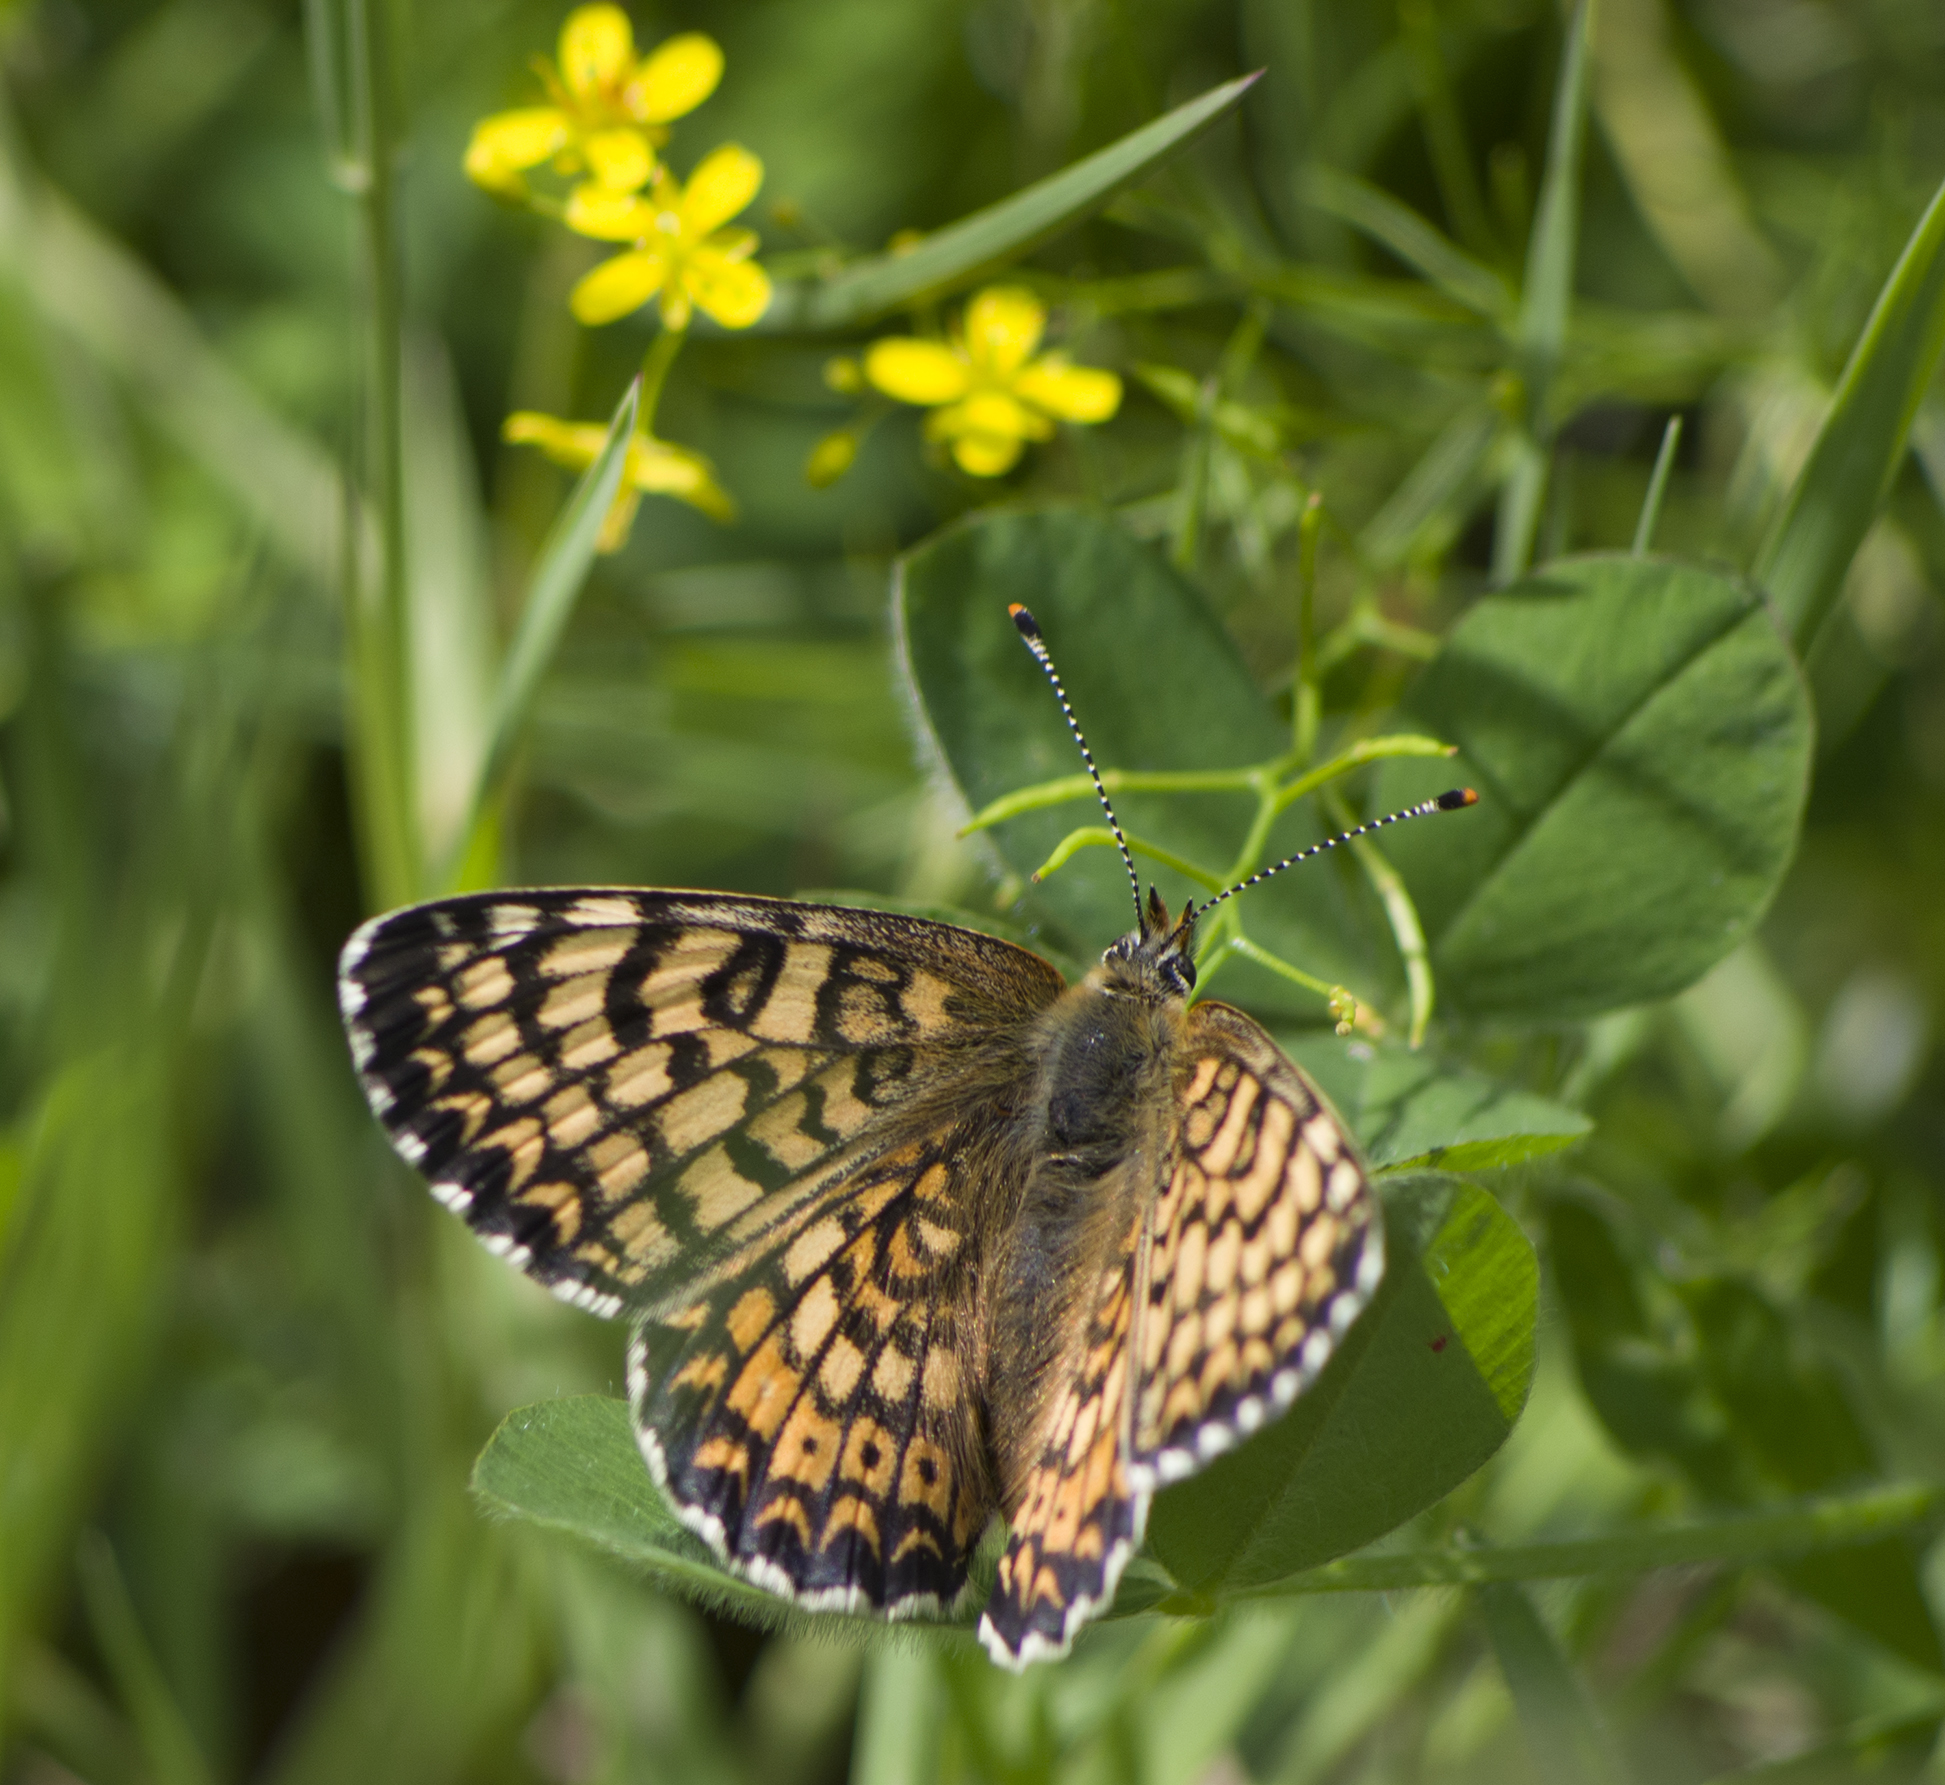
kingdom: Animalia
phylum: Arthropoda
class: Insecta
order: Lepidoptera
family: Nymphalidae
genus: Melitaea
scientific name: Melitaea cinxia
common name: Glanville fritillary
